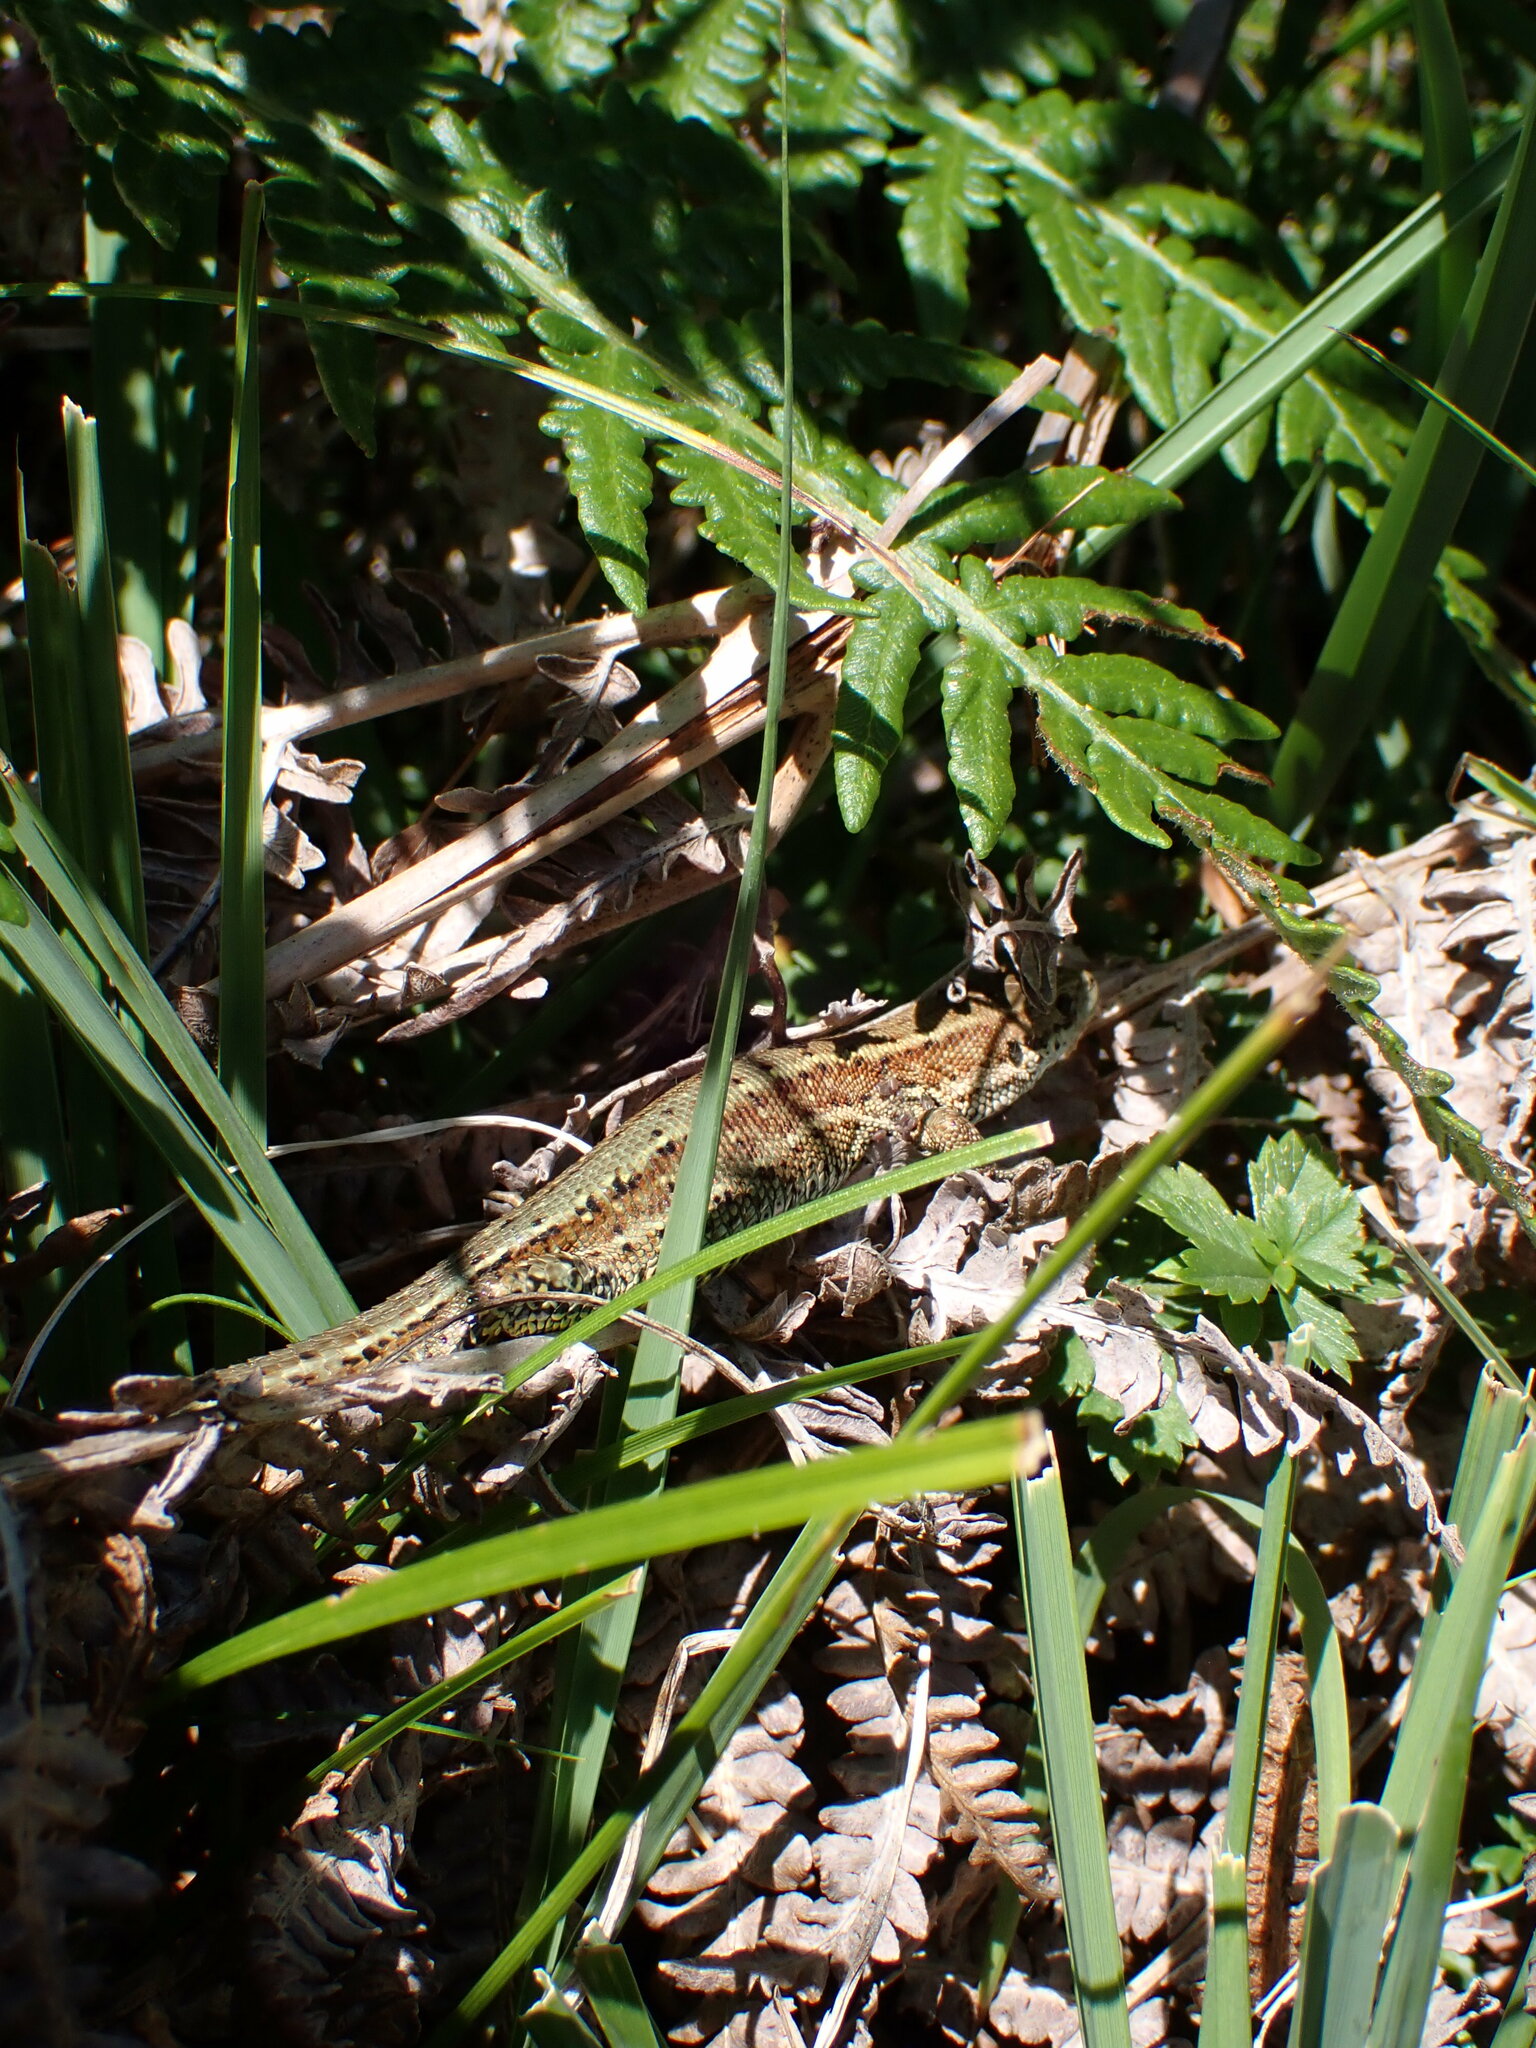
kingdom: Animalia
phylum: Chordata
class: Squamata
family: Lacertidae
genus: Zootoca
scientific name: Zootoca vivipara
